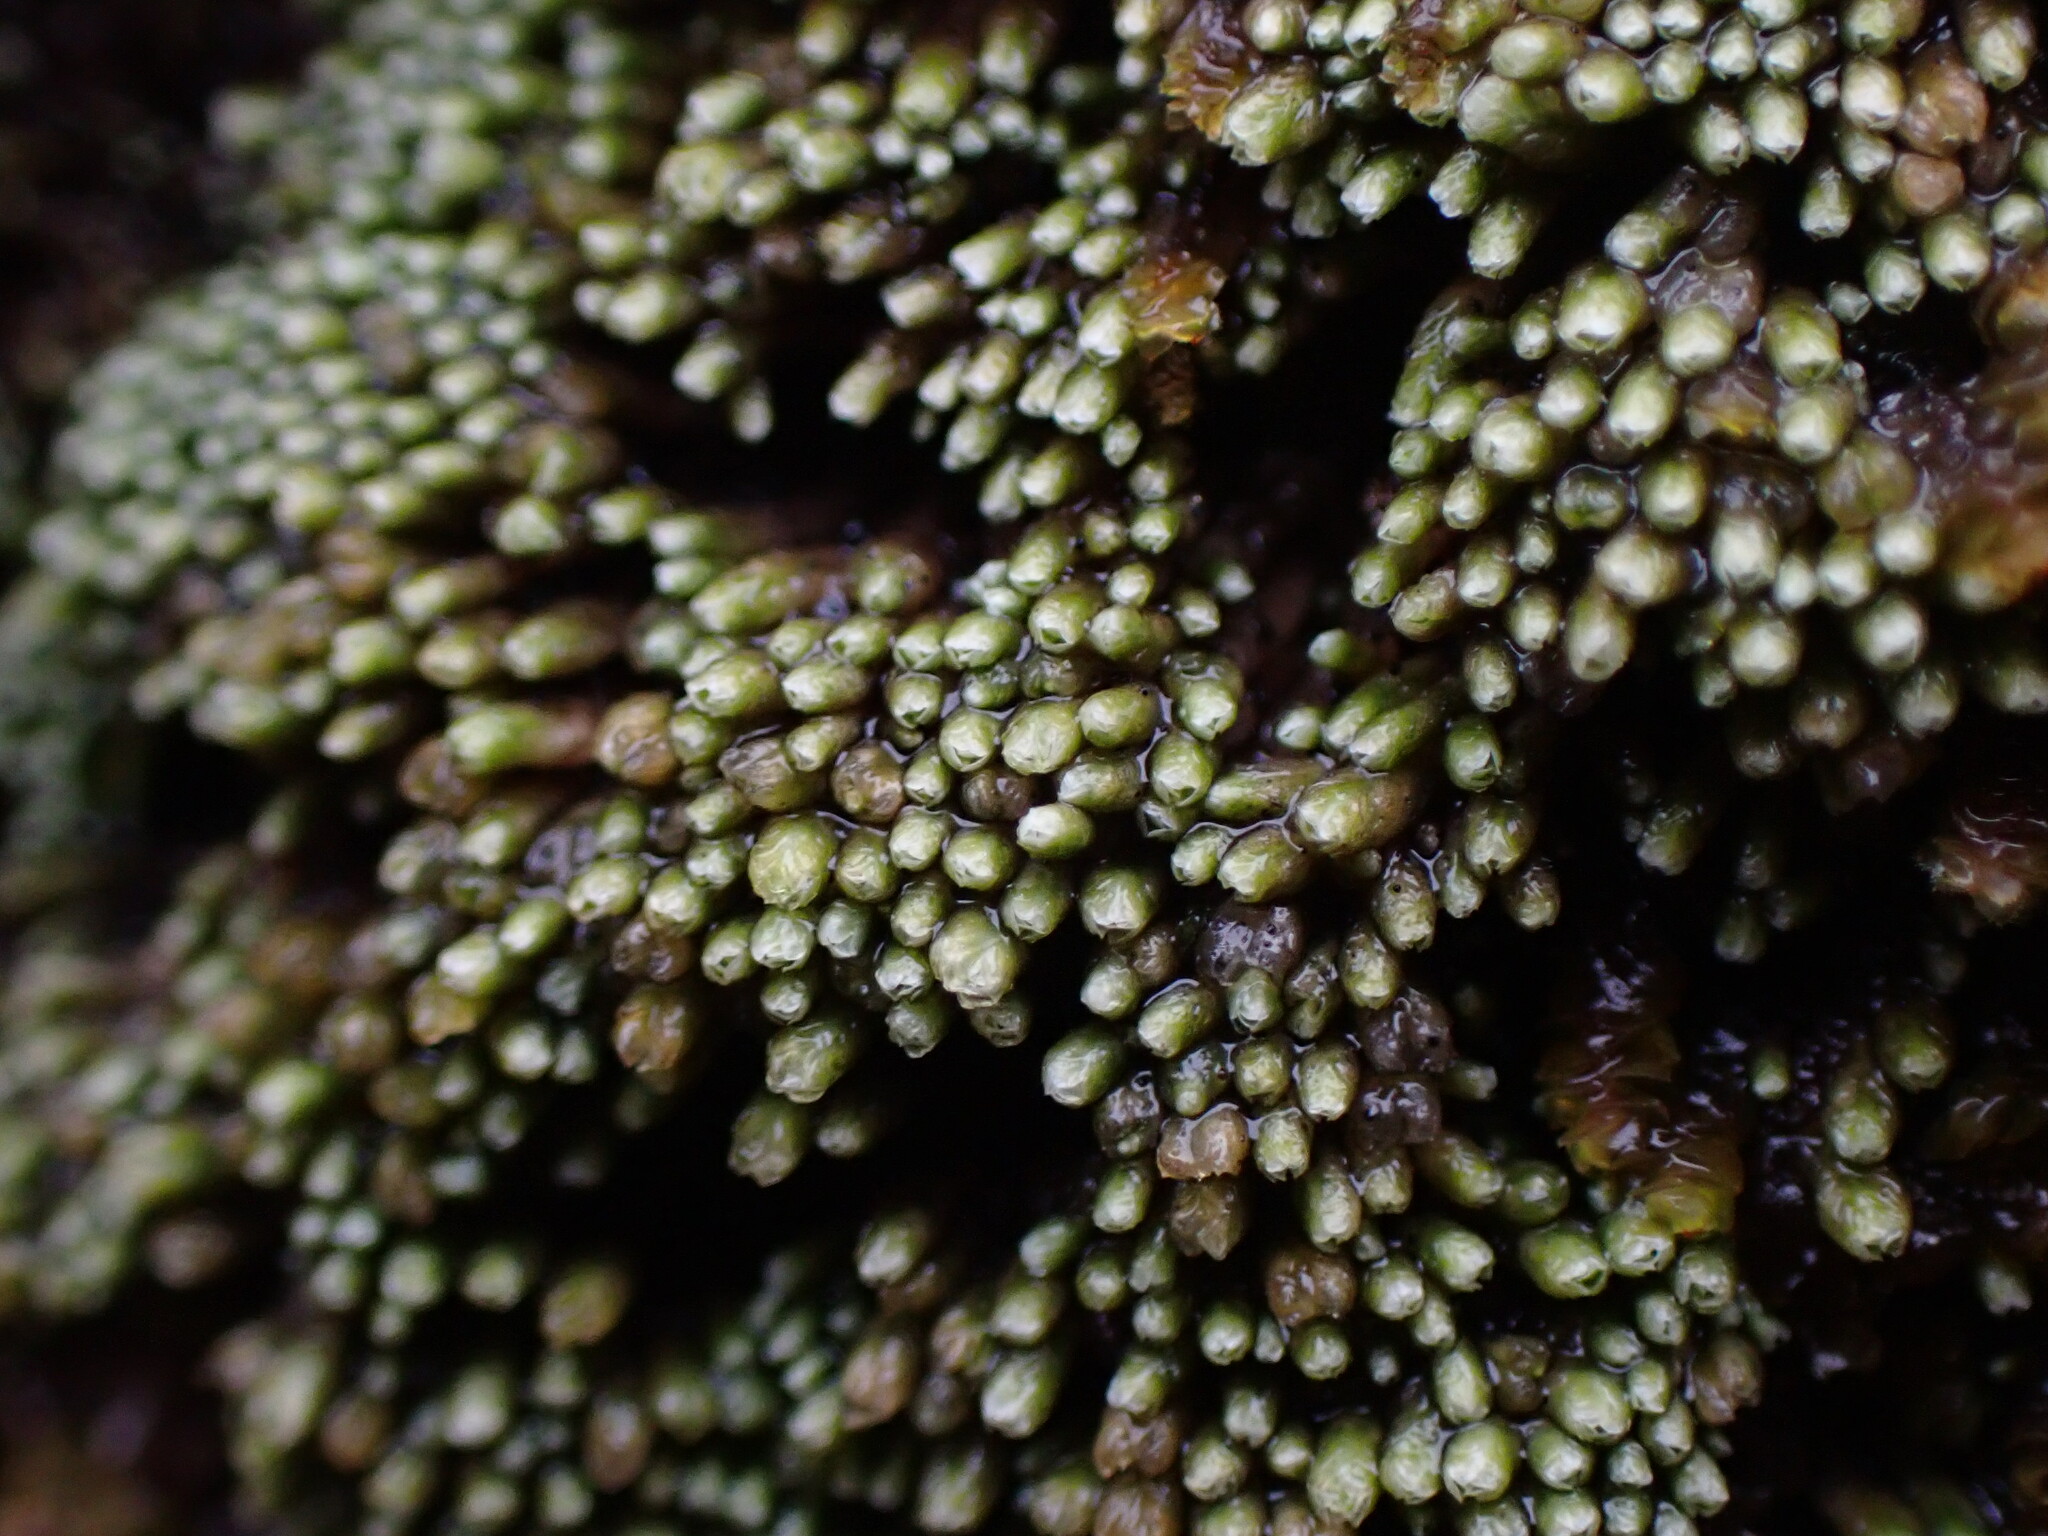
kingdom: Plantae
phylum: Marchantiophyta
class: Jungermanniopsida
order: Jungermanniales
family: Gymnomitriaceae
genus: Gymnomitrion
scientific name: Gymnomitrion obtusum
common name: White frostwort
